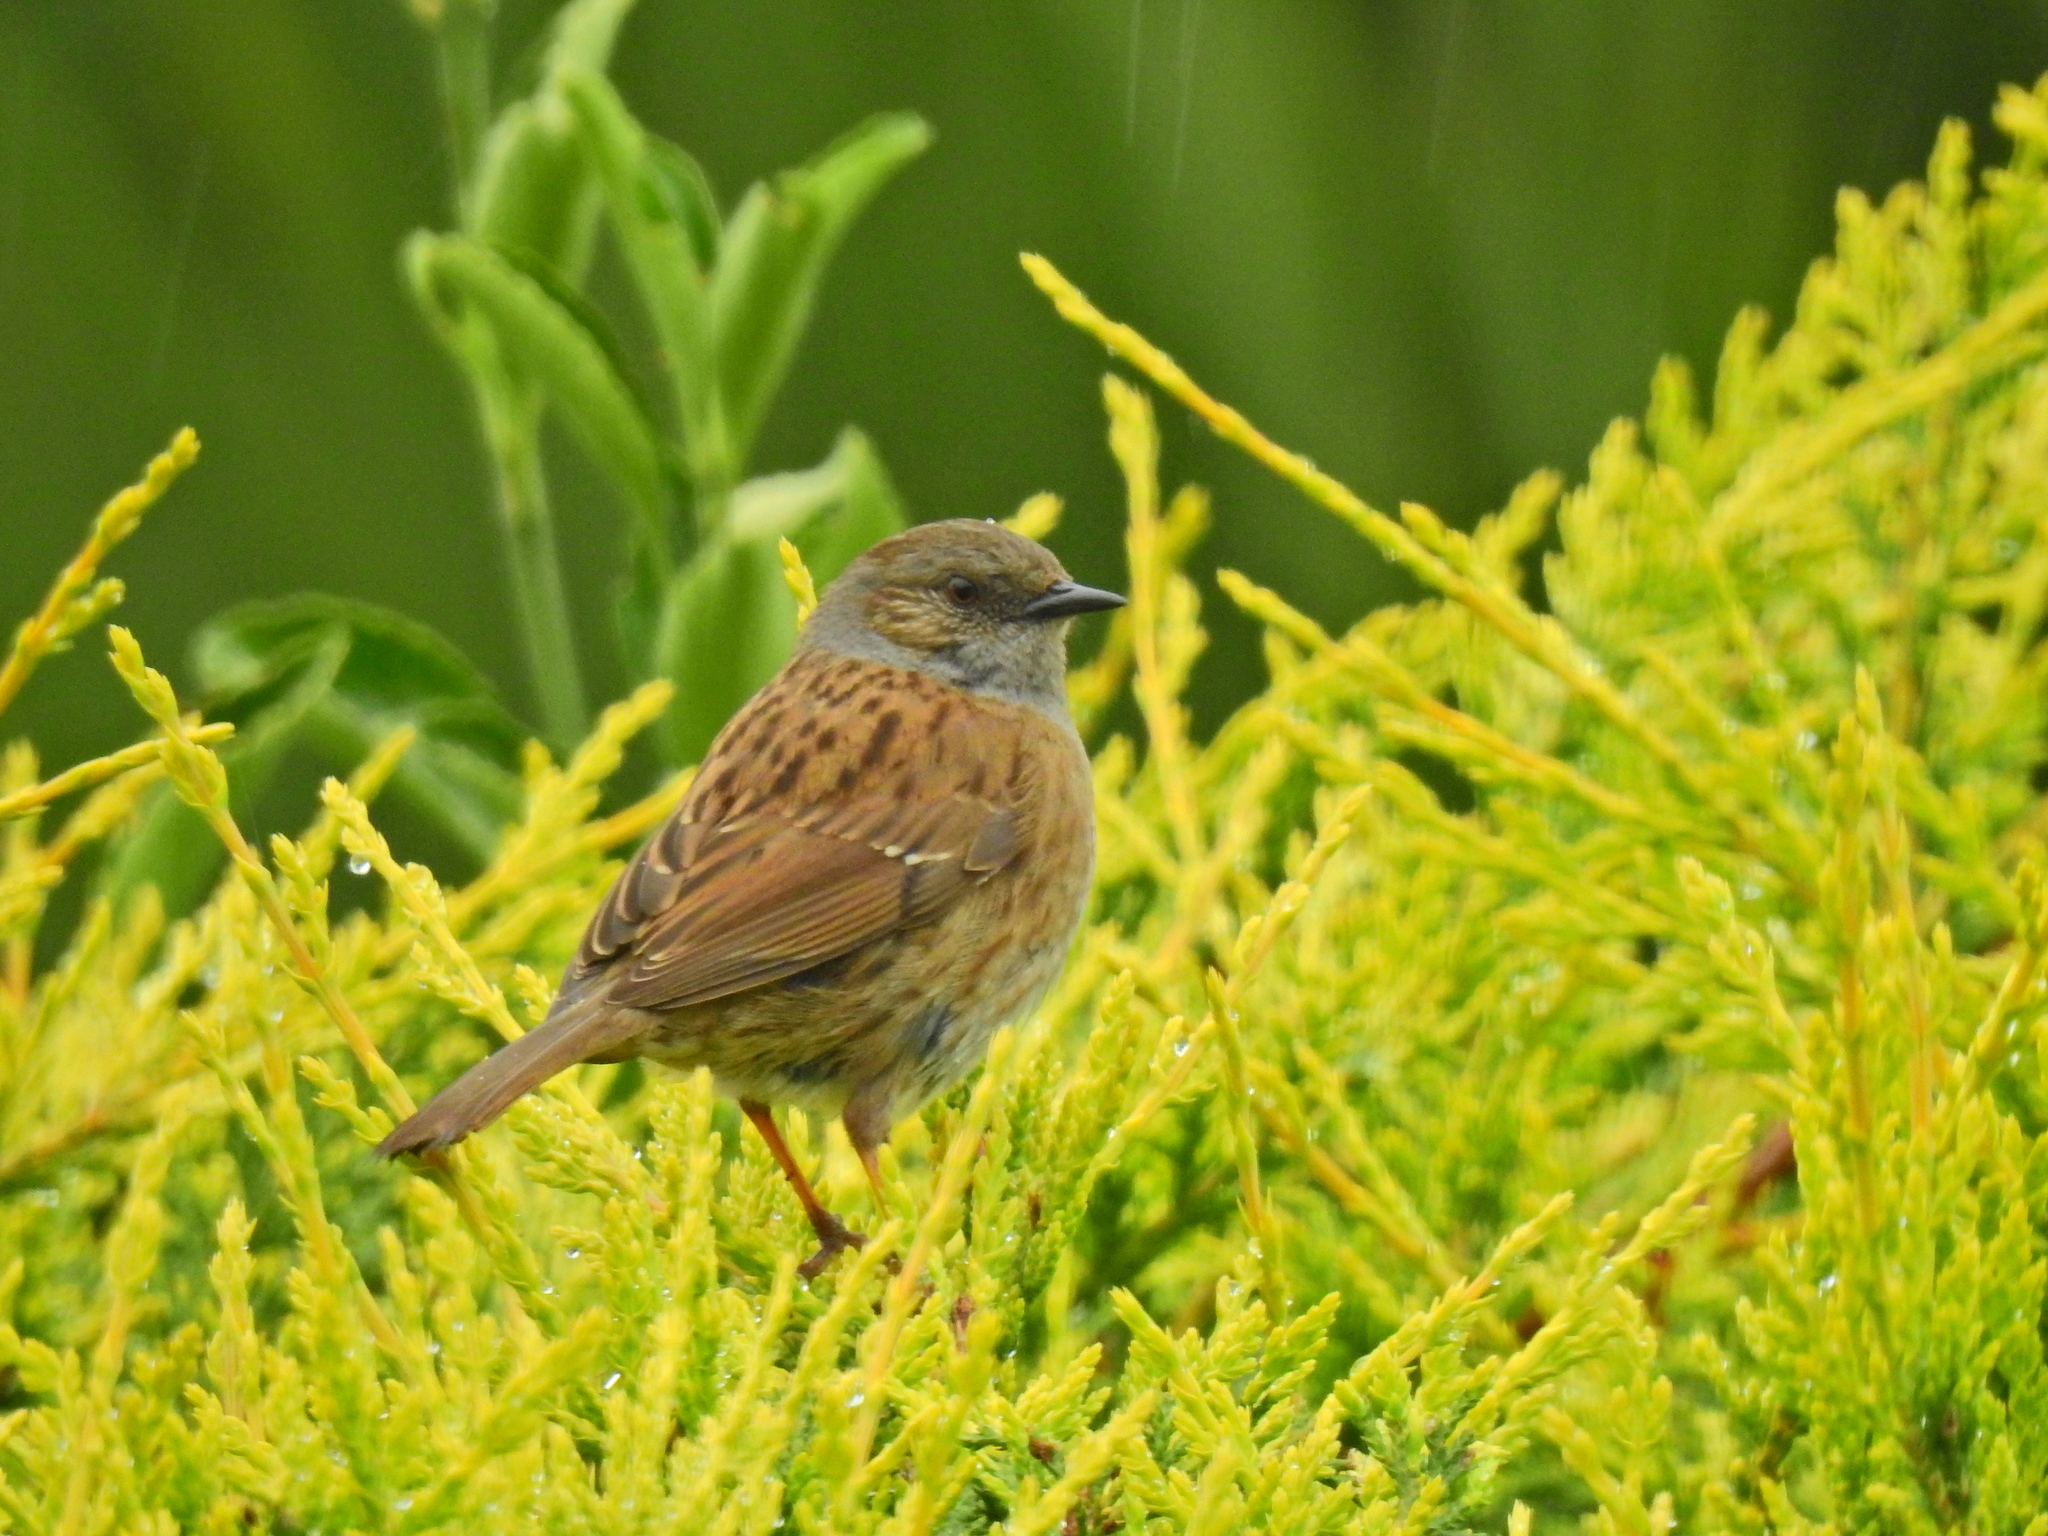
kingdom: Animalia
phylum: Chordata
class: Aves
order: Passeriformes
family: Prunellidae
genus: Prunella
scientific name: Prunella modularis
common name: Dunnock
